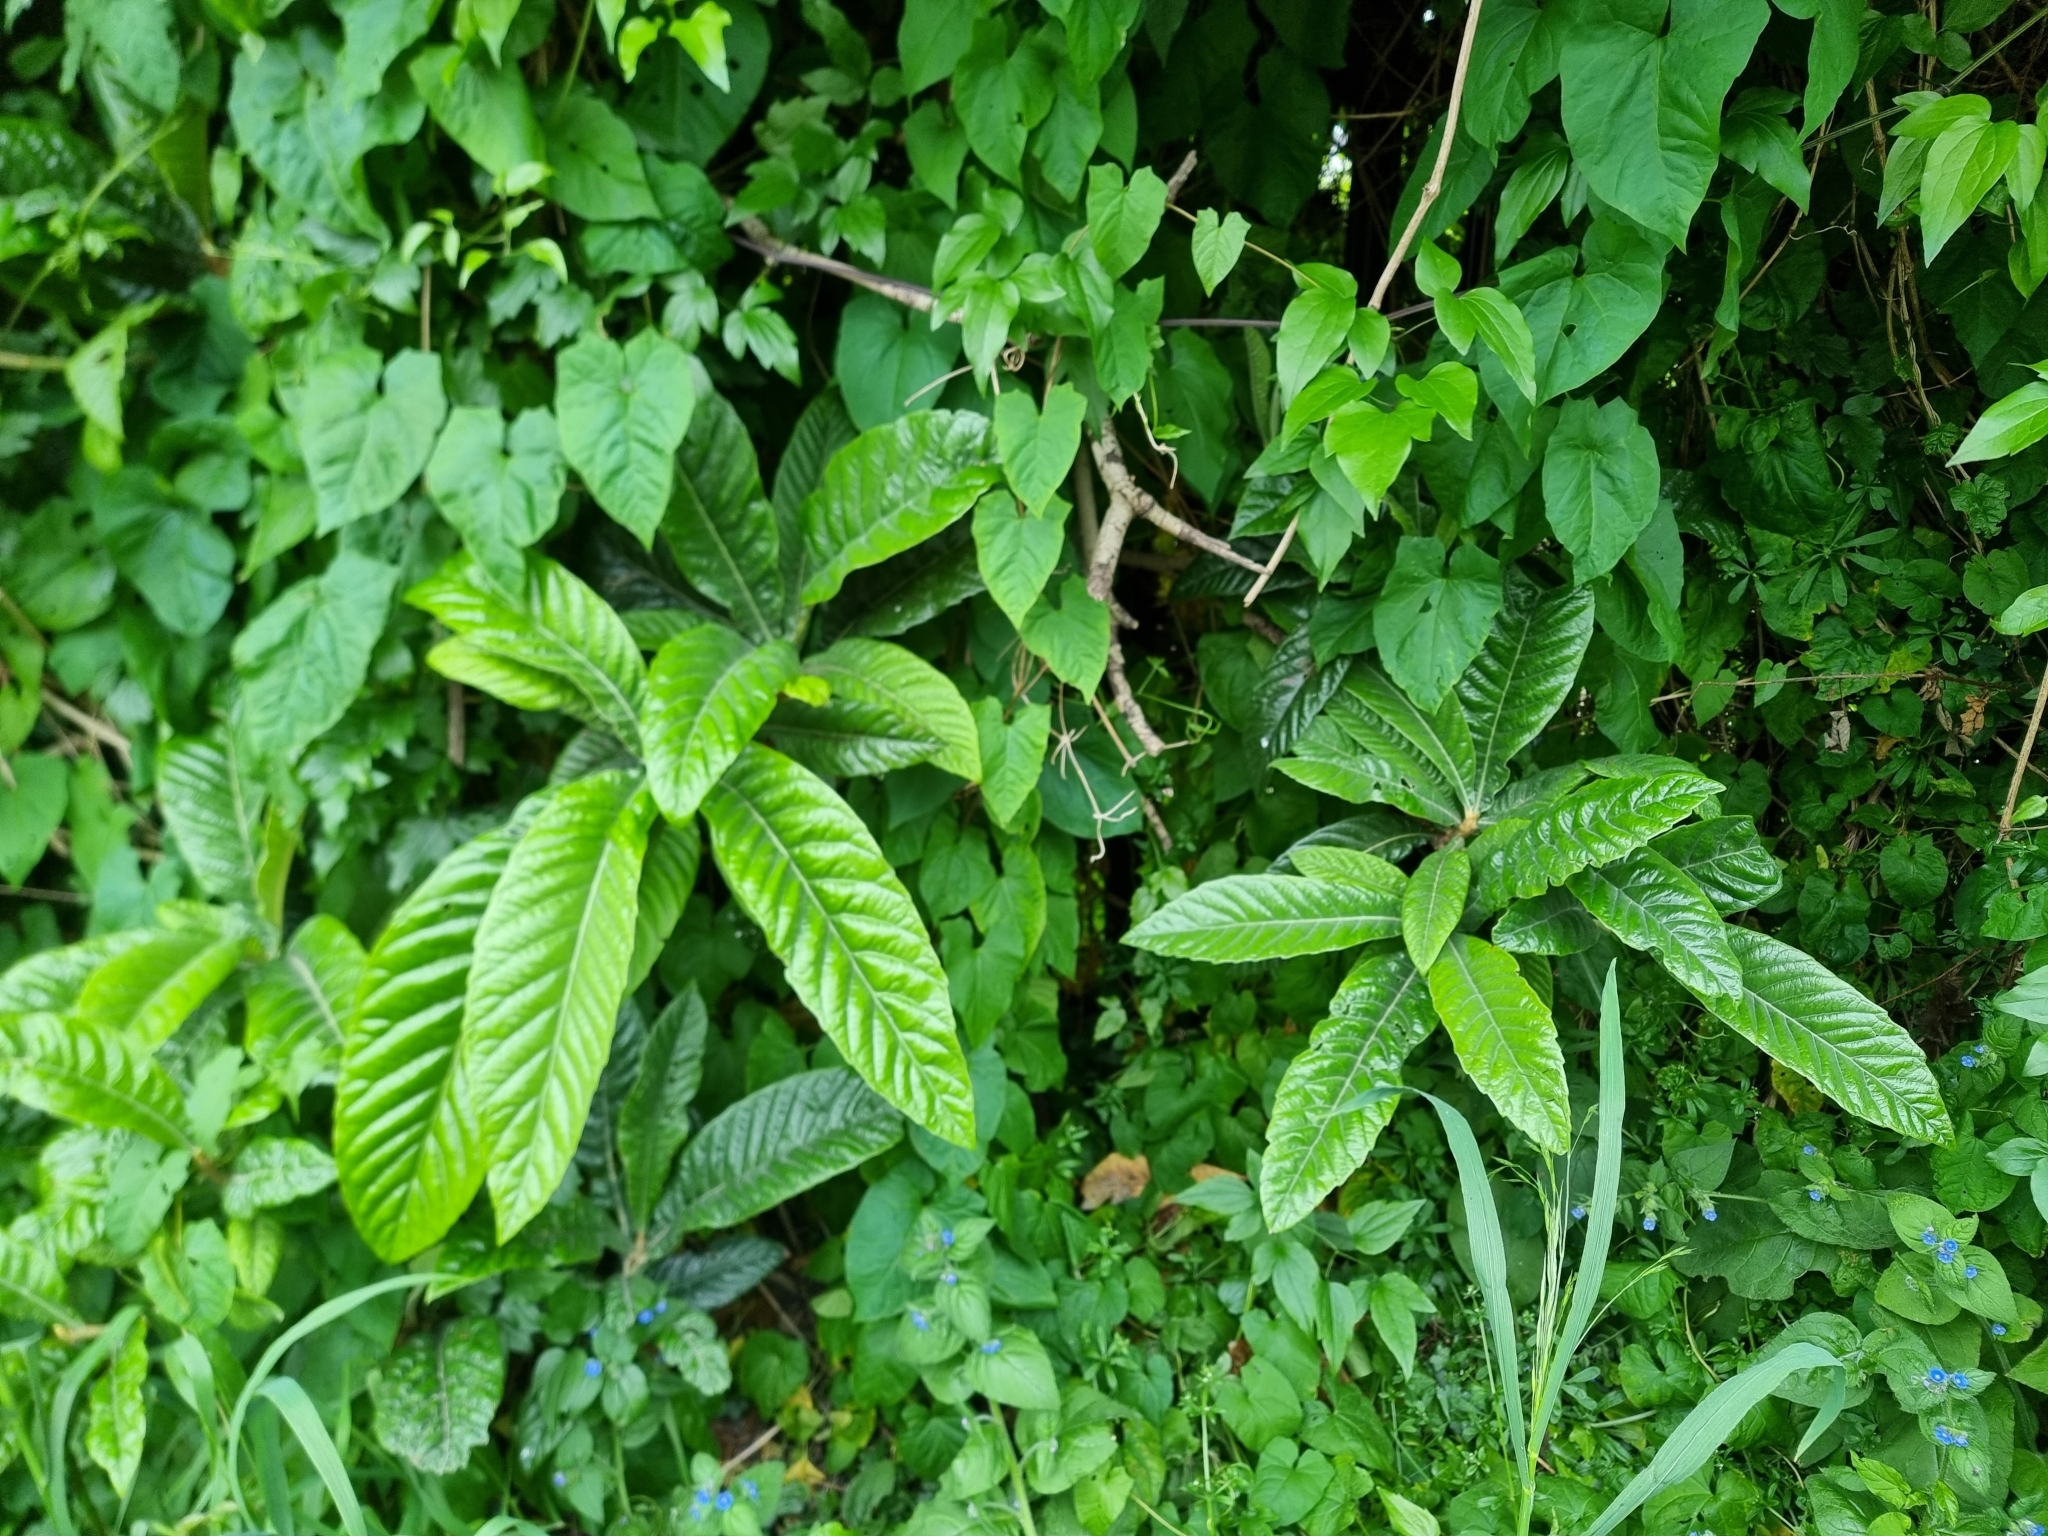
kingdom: Plantae
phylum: Tracheophyta
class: Magnoliopsida
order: Rosales
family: Rosaceae
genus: Rhaphiolepis
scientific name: Rhaphiolepis bibas
